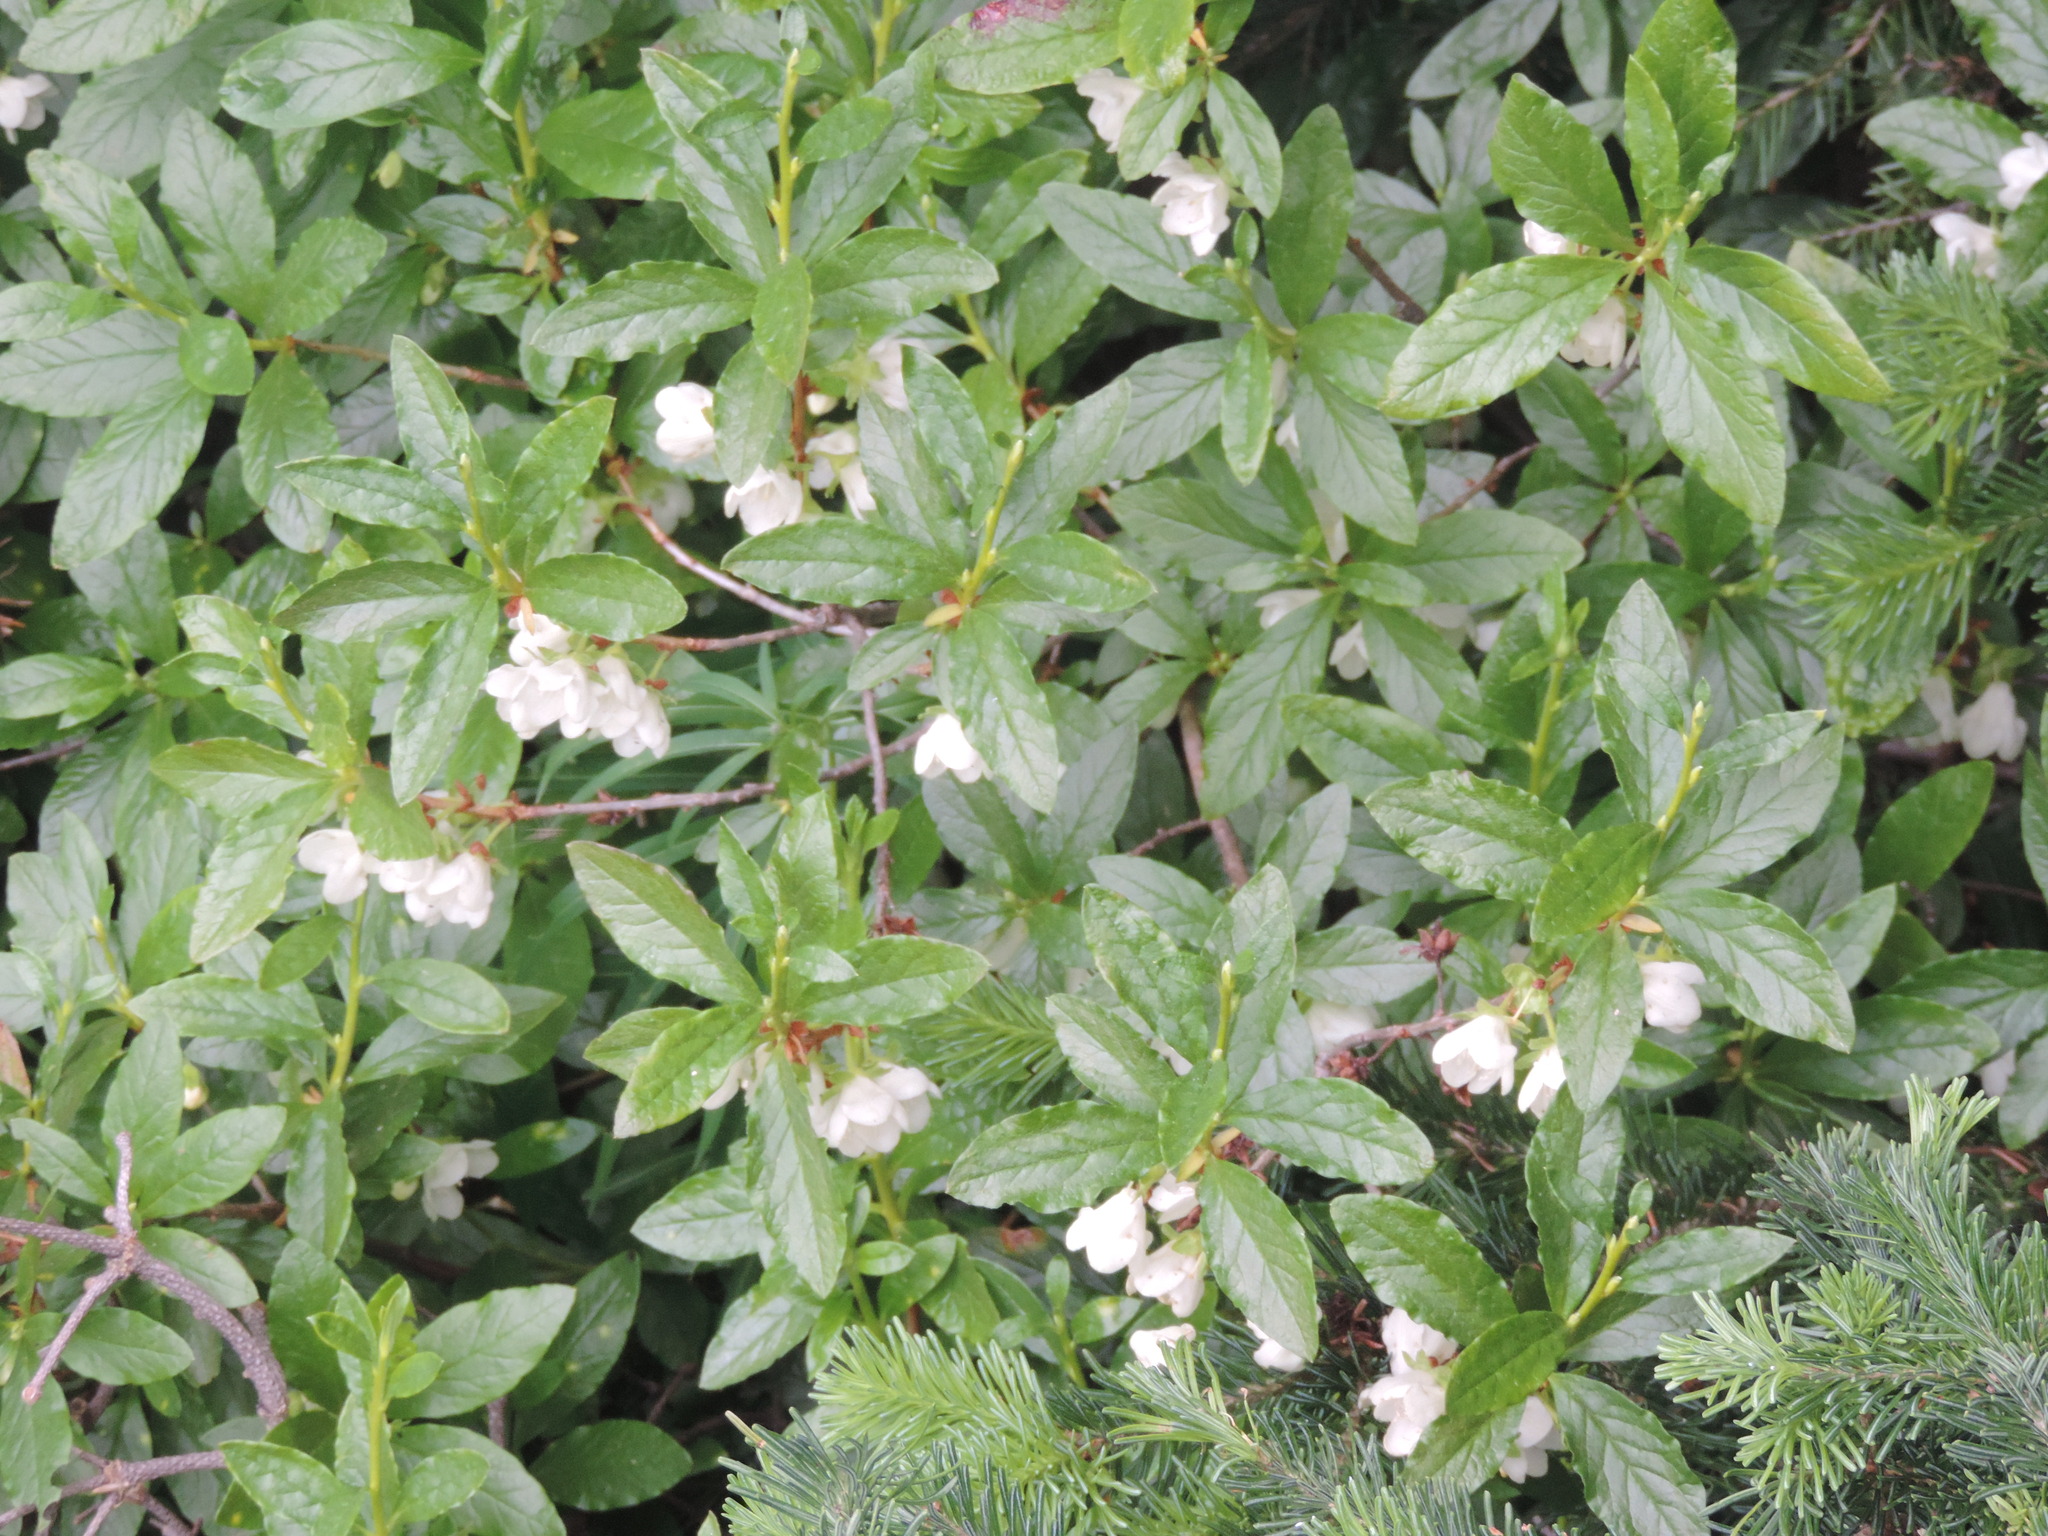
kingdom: Plantae
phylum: Tracheophyta
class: Magnoliopsida
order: Ericales
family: Ericaceae
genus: Rhododendron
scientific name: Rhododendron albiflorum
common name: White rhododendron
